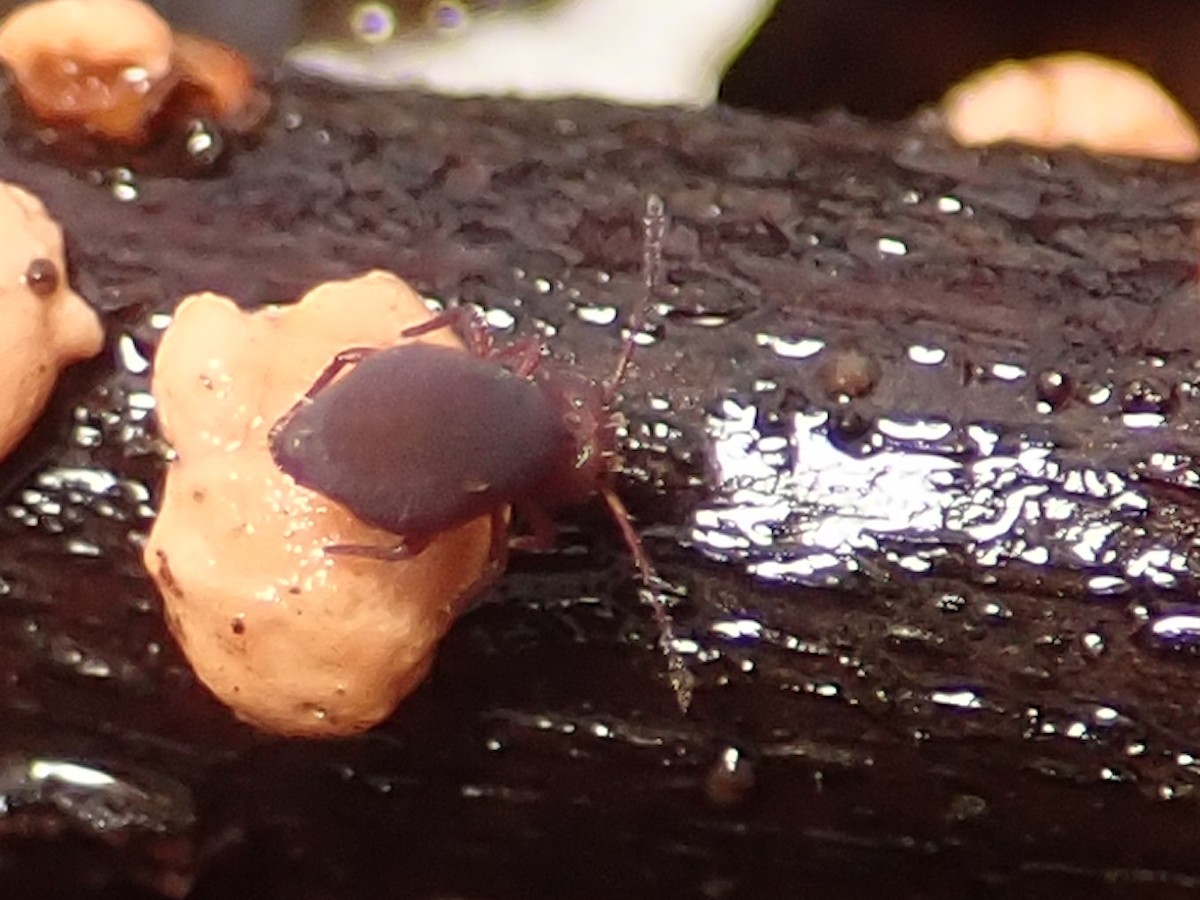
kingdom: Animalia
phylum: Arthropoda
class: Collembola
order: Symphypleona
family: Dicyrtomidae
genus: Dicyrtoma
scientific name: Dicyrtoma fusca
